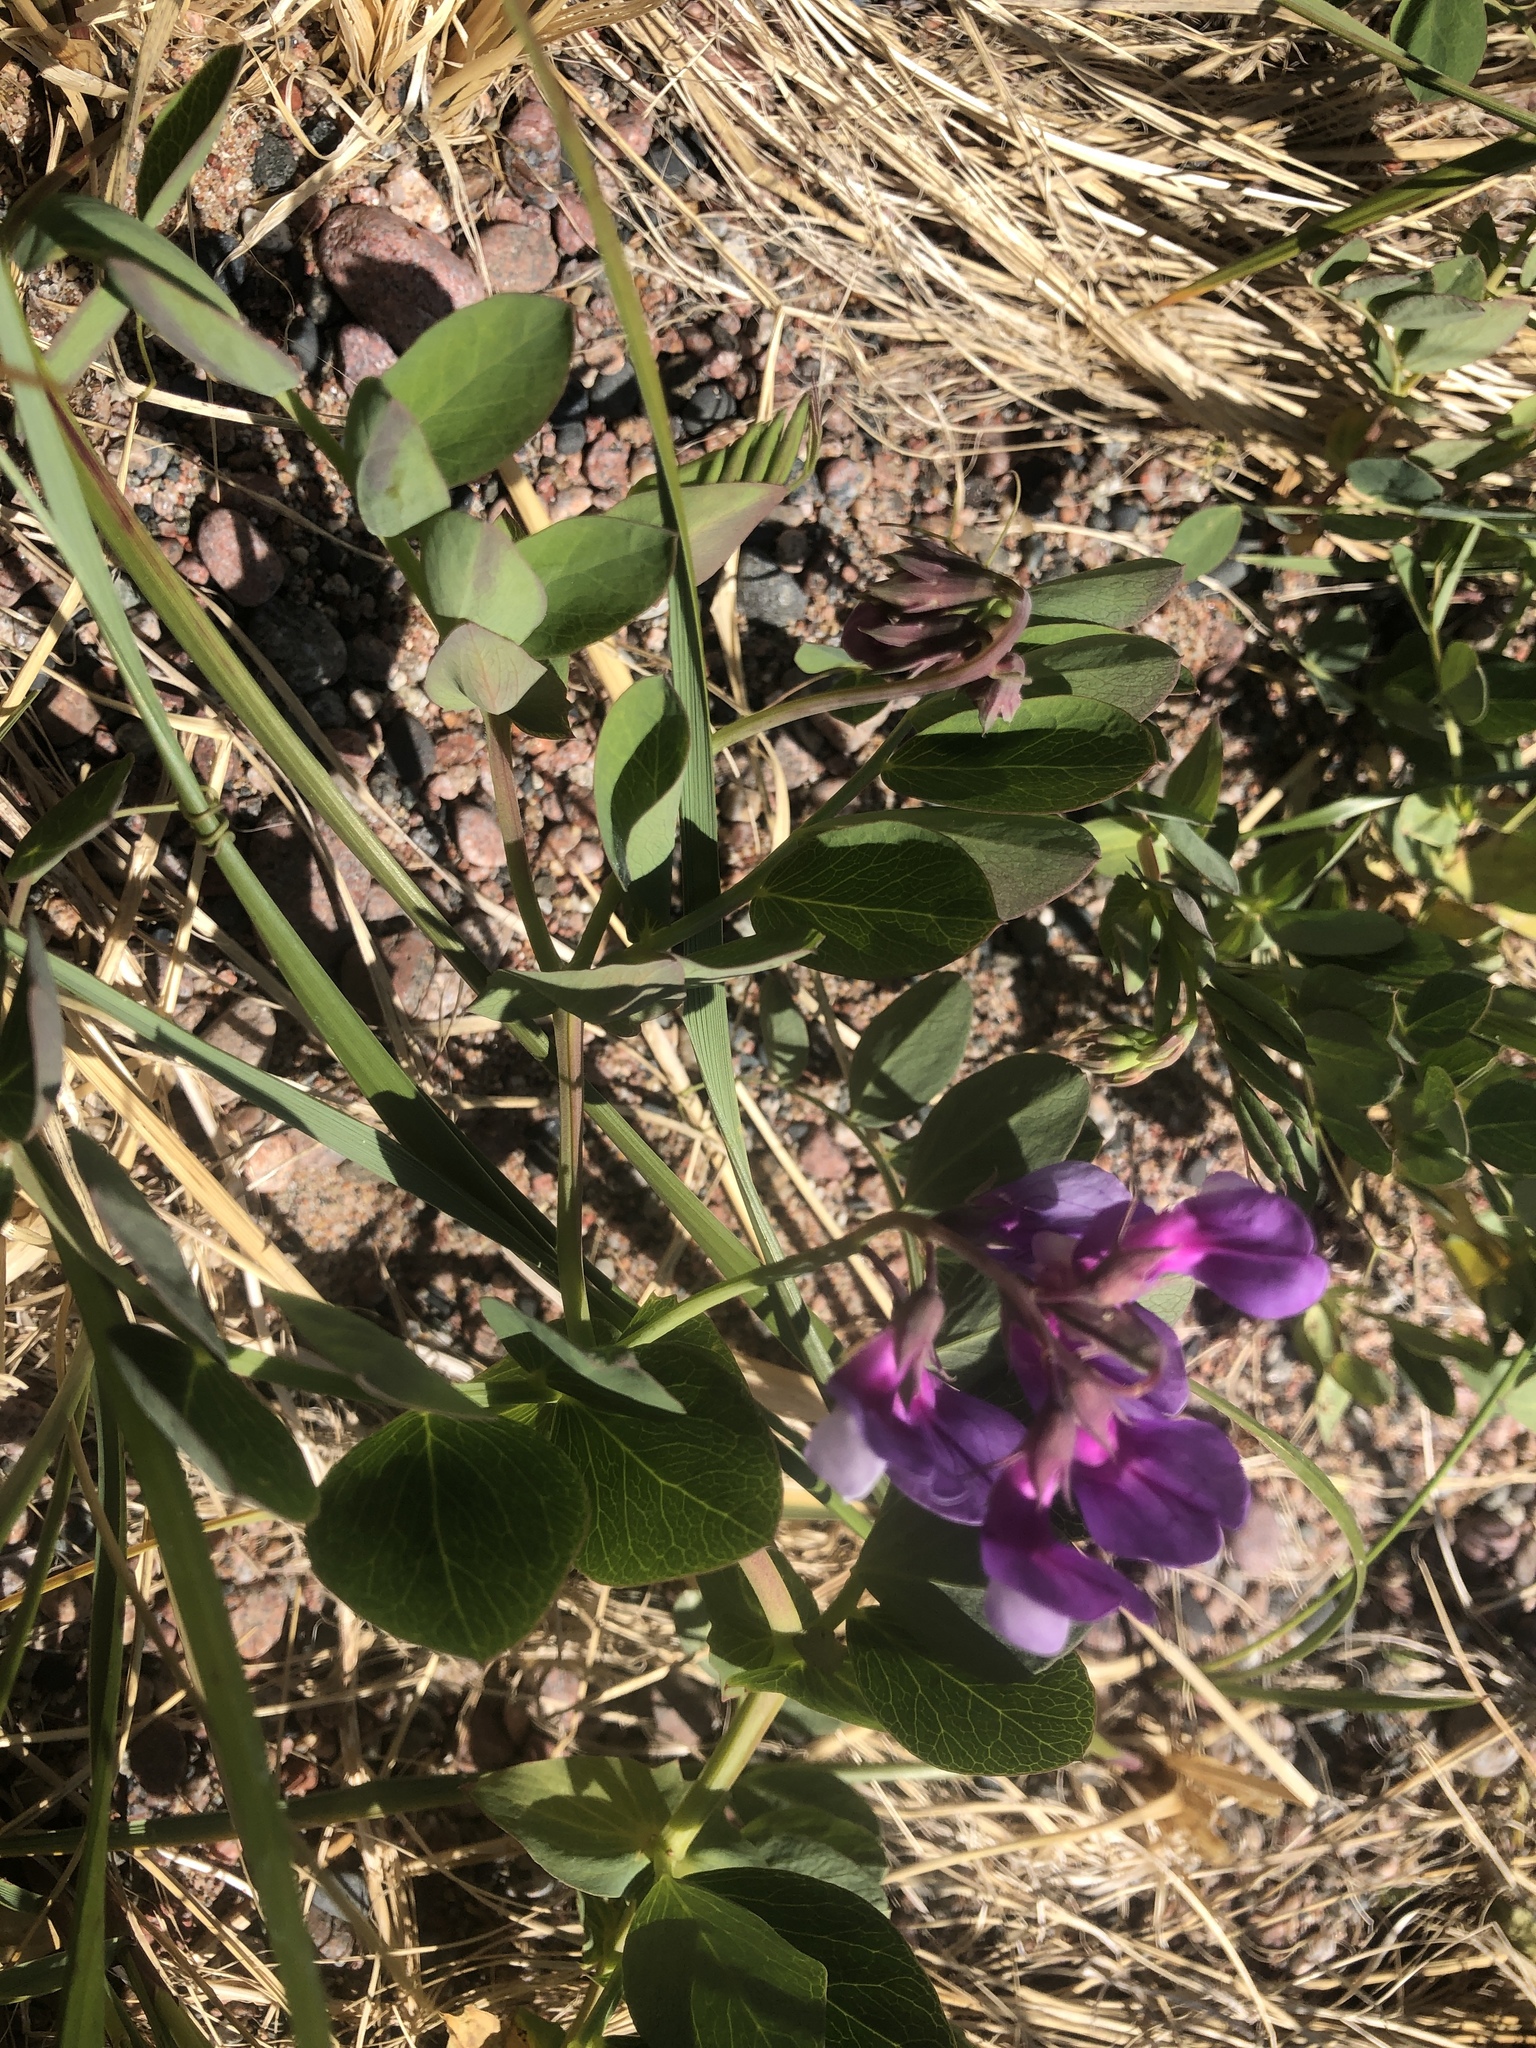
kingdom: Plantae
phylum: Tracheophyta
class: Magnoliopsida
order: Fabales
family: Fabaceae
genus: Lathyrus
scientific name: Lathyrus japonicus
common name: Sea pea
